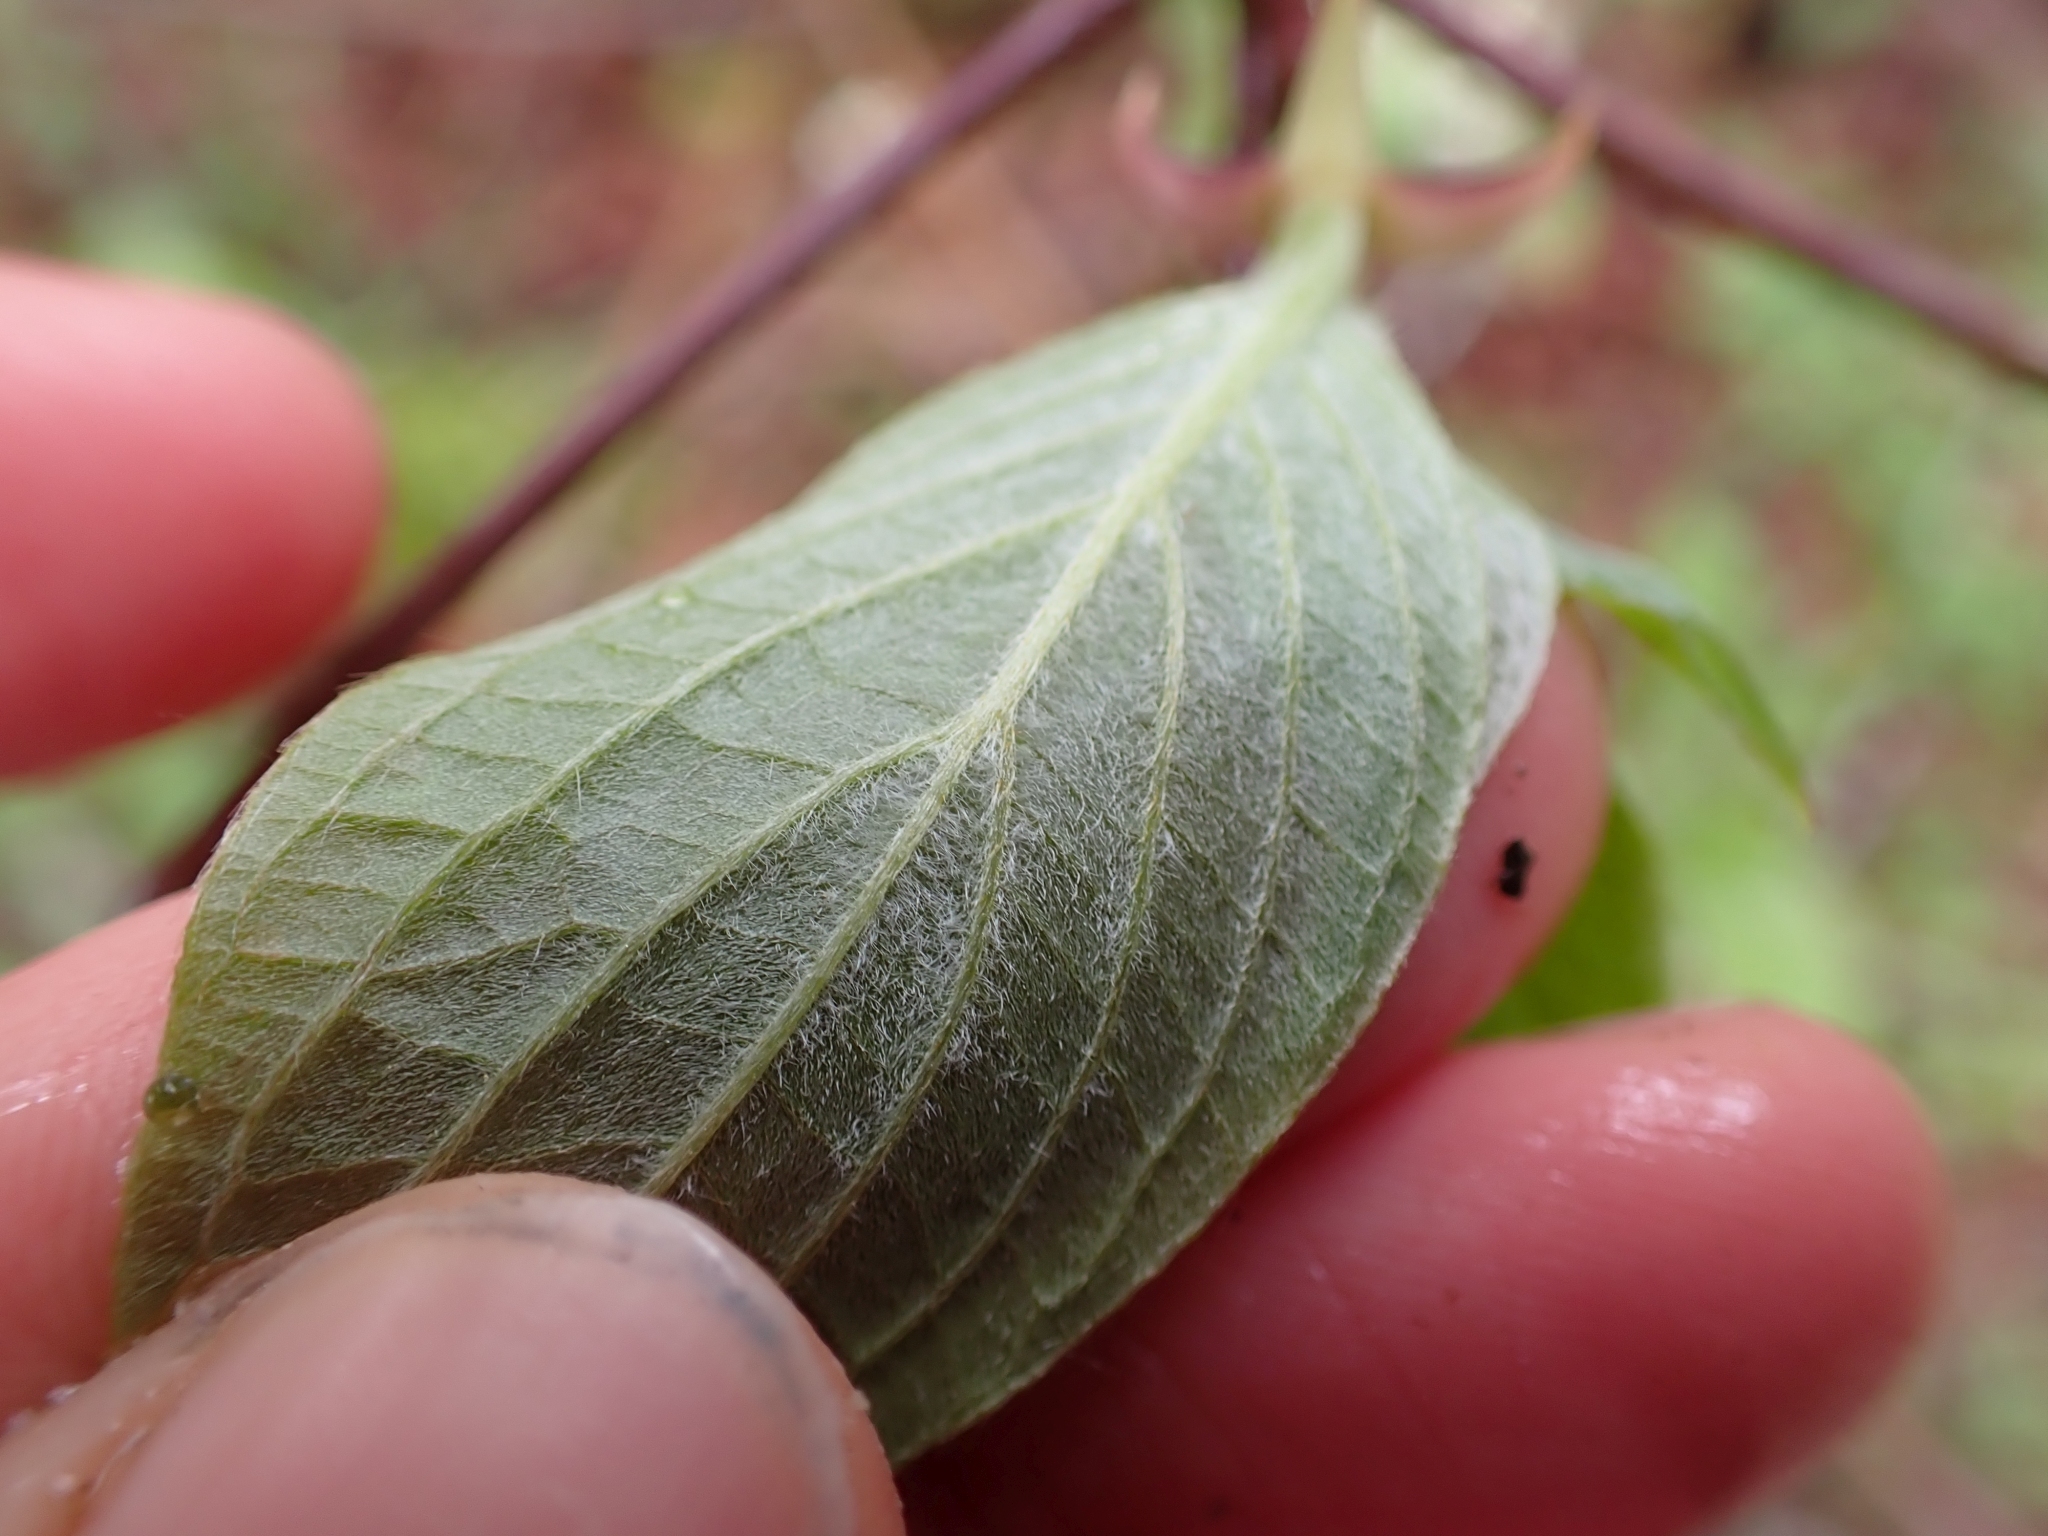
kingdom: Plantae
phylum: Tracheophyta
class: Magnoliopsida
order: Cornales
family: Cornaceae
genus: Cornus
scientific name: Cornus nuttallii
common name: Pacific dogwood
